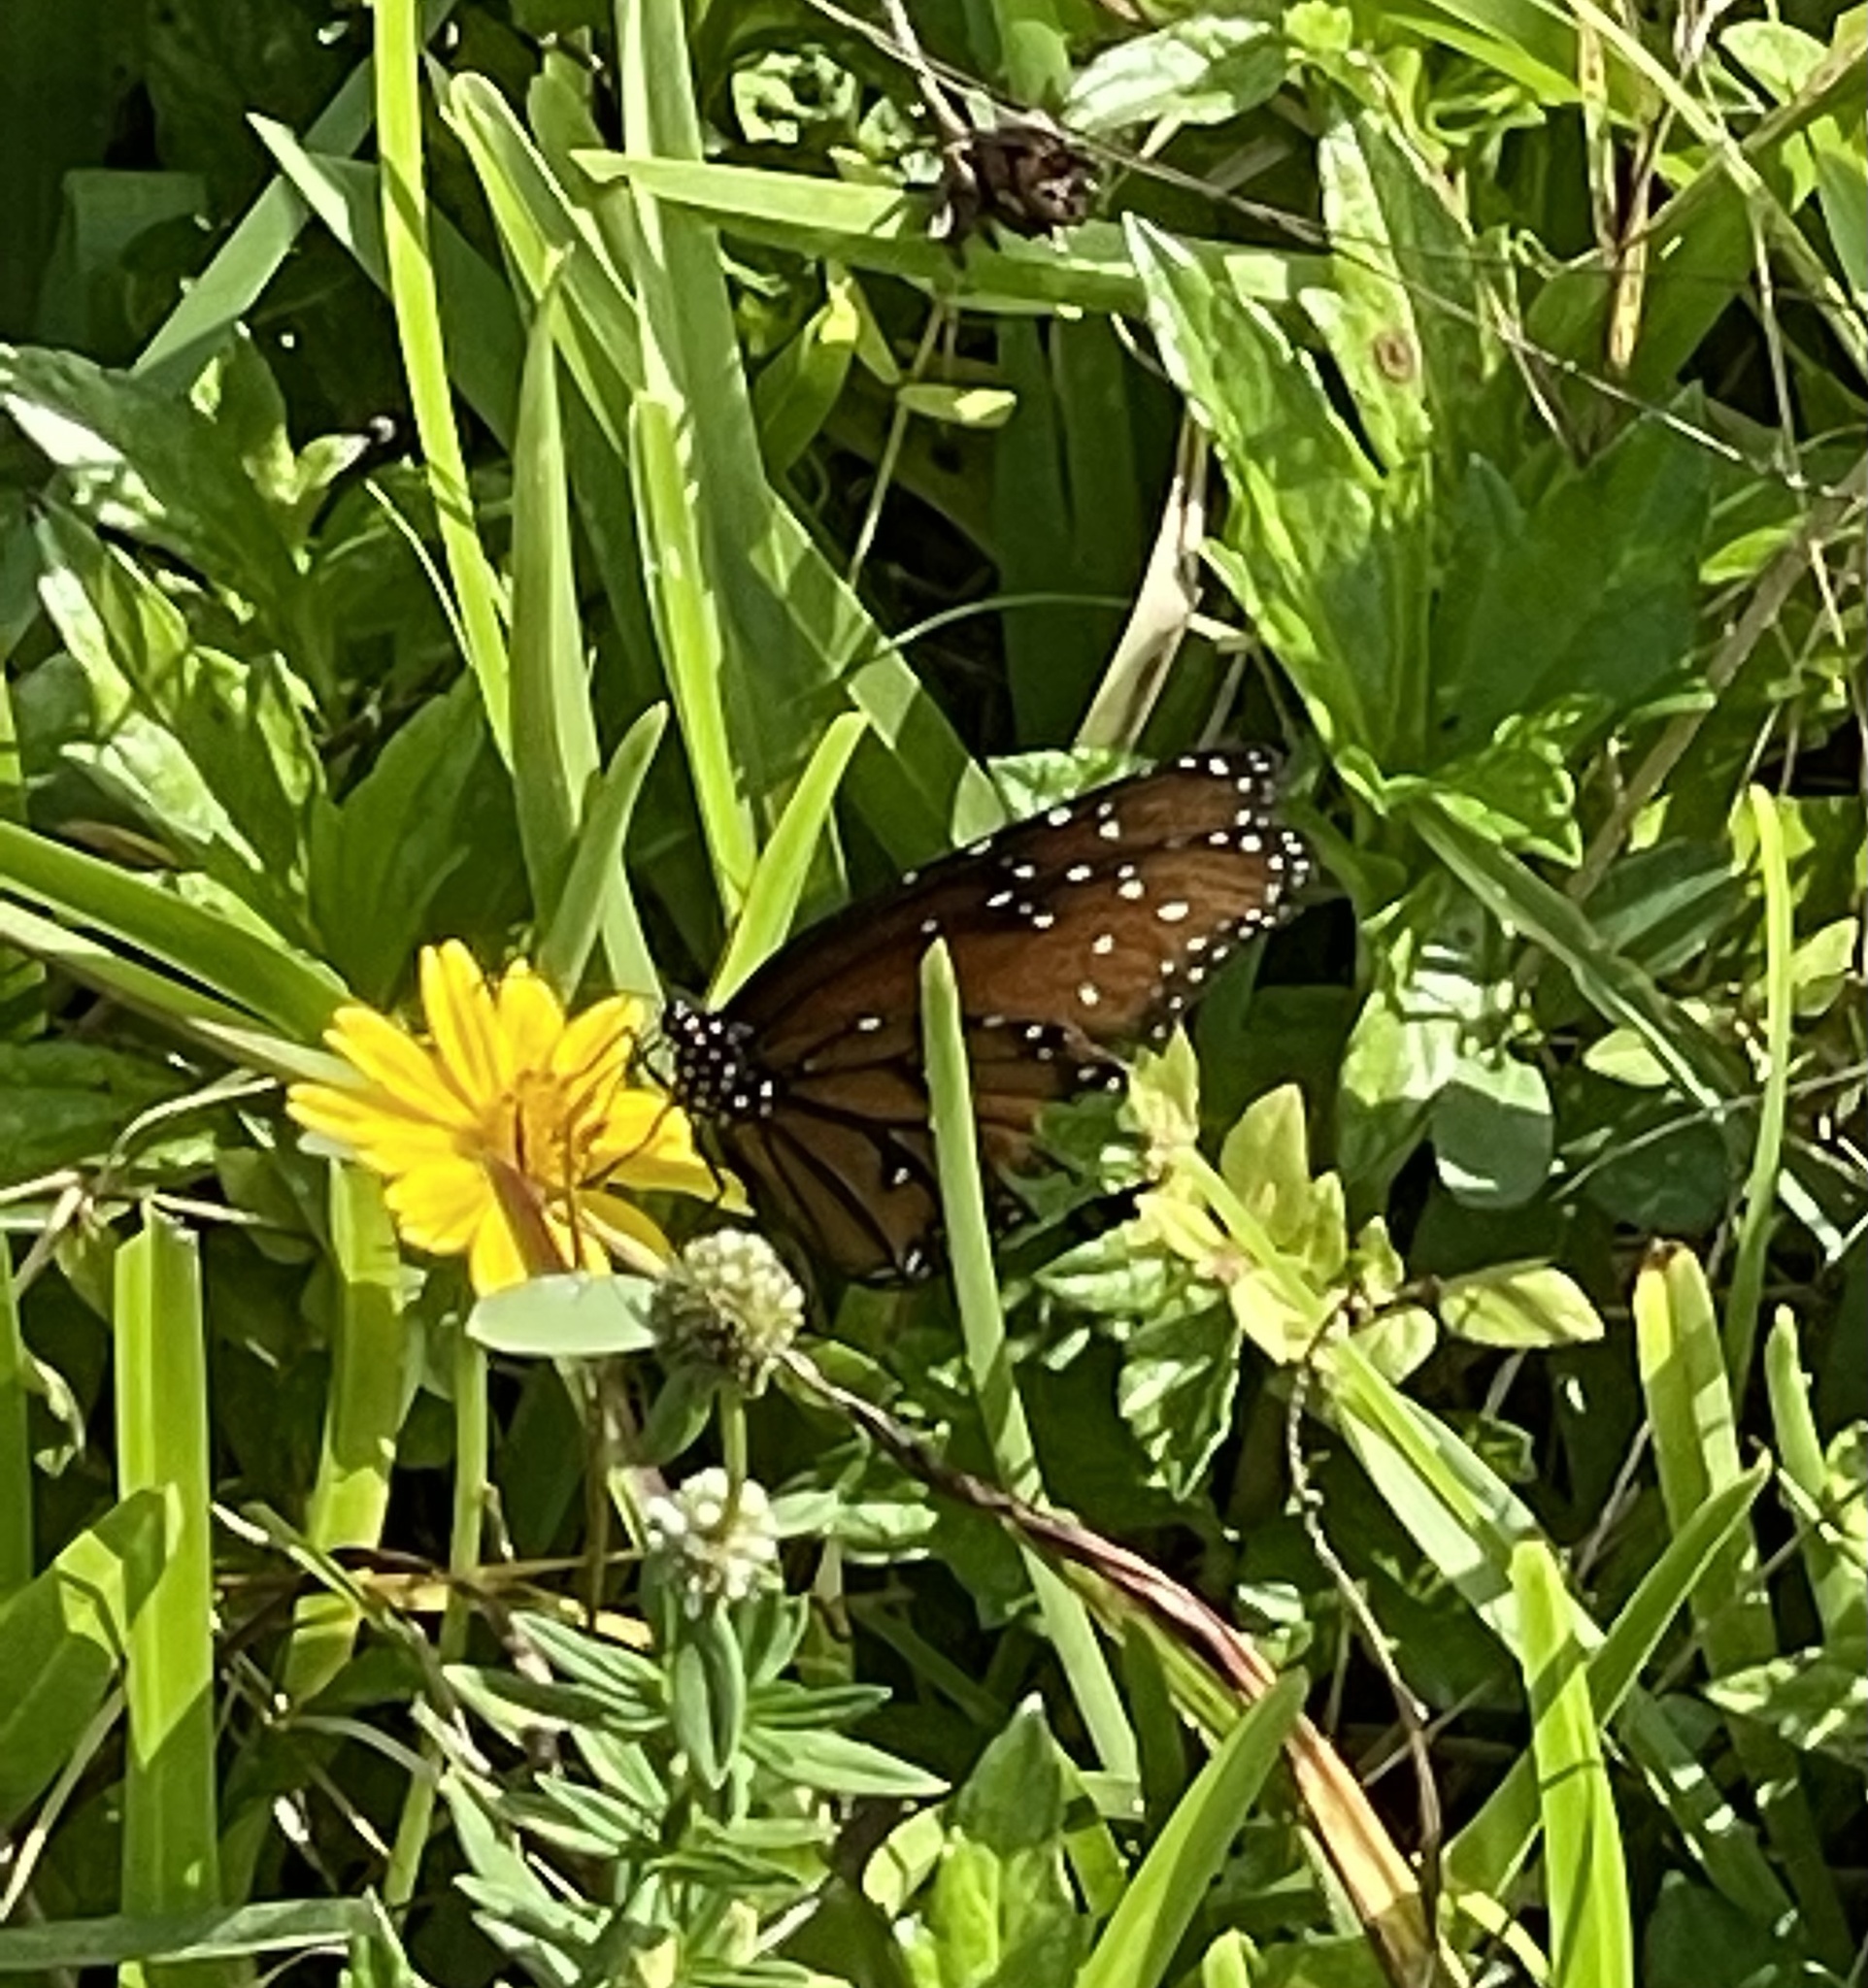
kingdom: Animalia
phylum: Arthropoda
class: Insecta
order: Lepidoptera
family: Nymphalidae
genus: Danaus
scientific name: Danaus gilippus
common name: Queen
